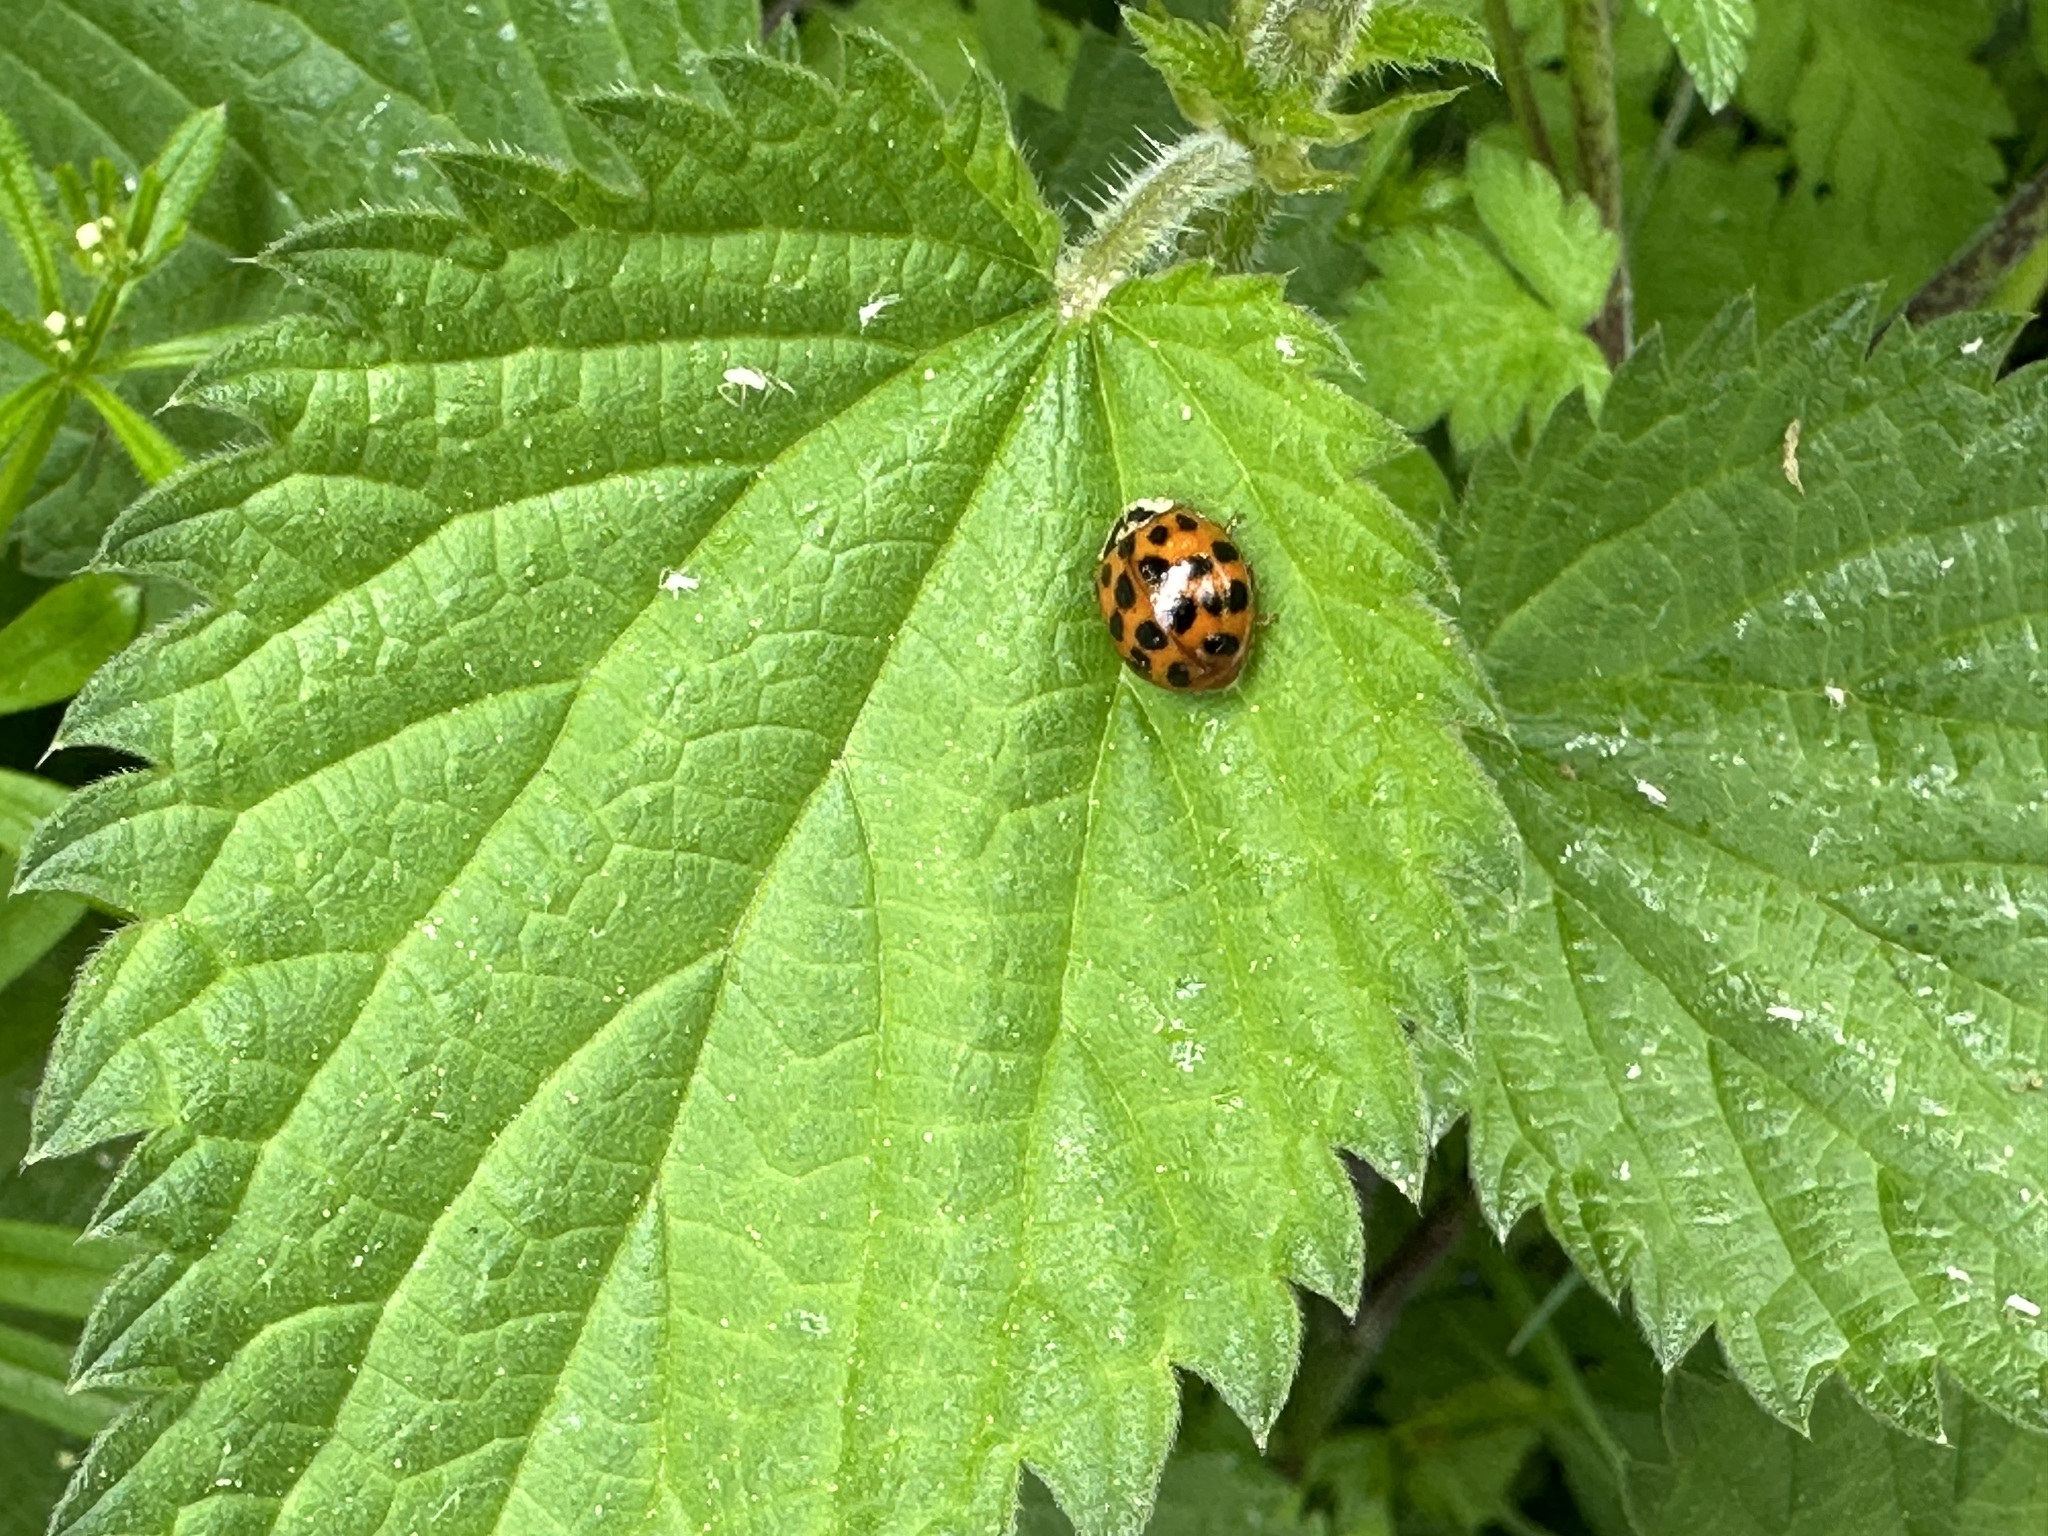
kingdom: Animalia
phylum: Arthropoda
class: Insecta
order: Coleoptera
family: Coccinellidae
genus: Harmonia
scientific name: Harmonia axyridis
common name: Harlequin ladybird
